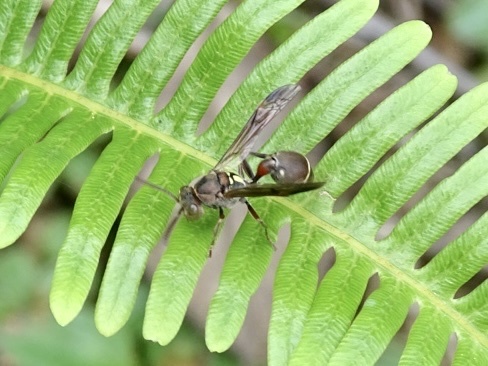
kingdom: Animalia
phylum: Arthropoda
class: Insecta
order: Hymenoptera
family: Vespidae
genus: Ropalidia
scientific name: Ropalidia hongkongensis
